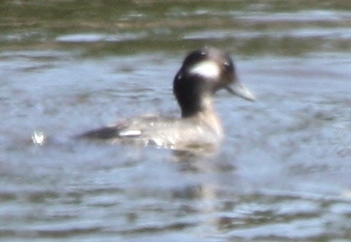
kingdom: Animalia
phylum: Chordata
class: Aves
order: Anseriformes
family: Anatidae
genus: Bucephala
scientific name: Bucephala albeola
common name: Bufflehead
